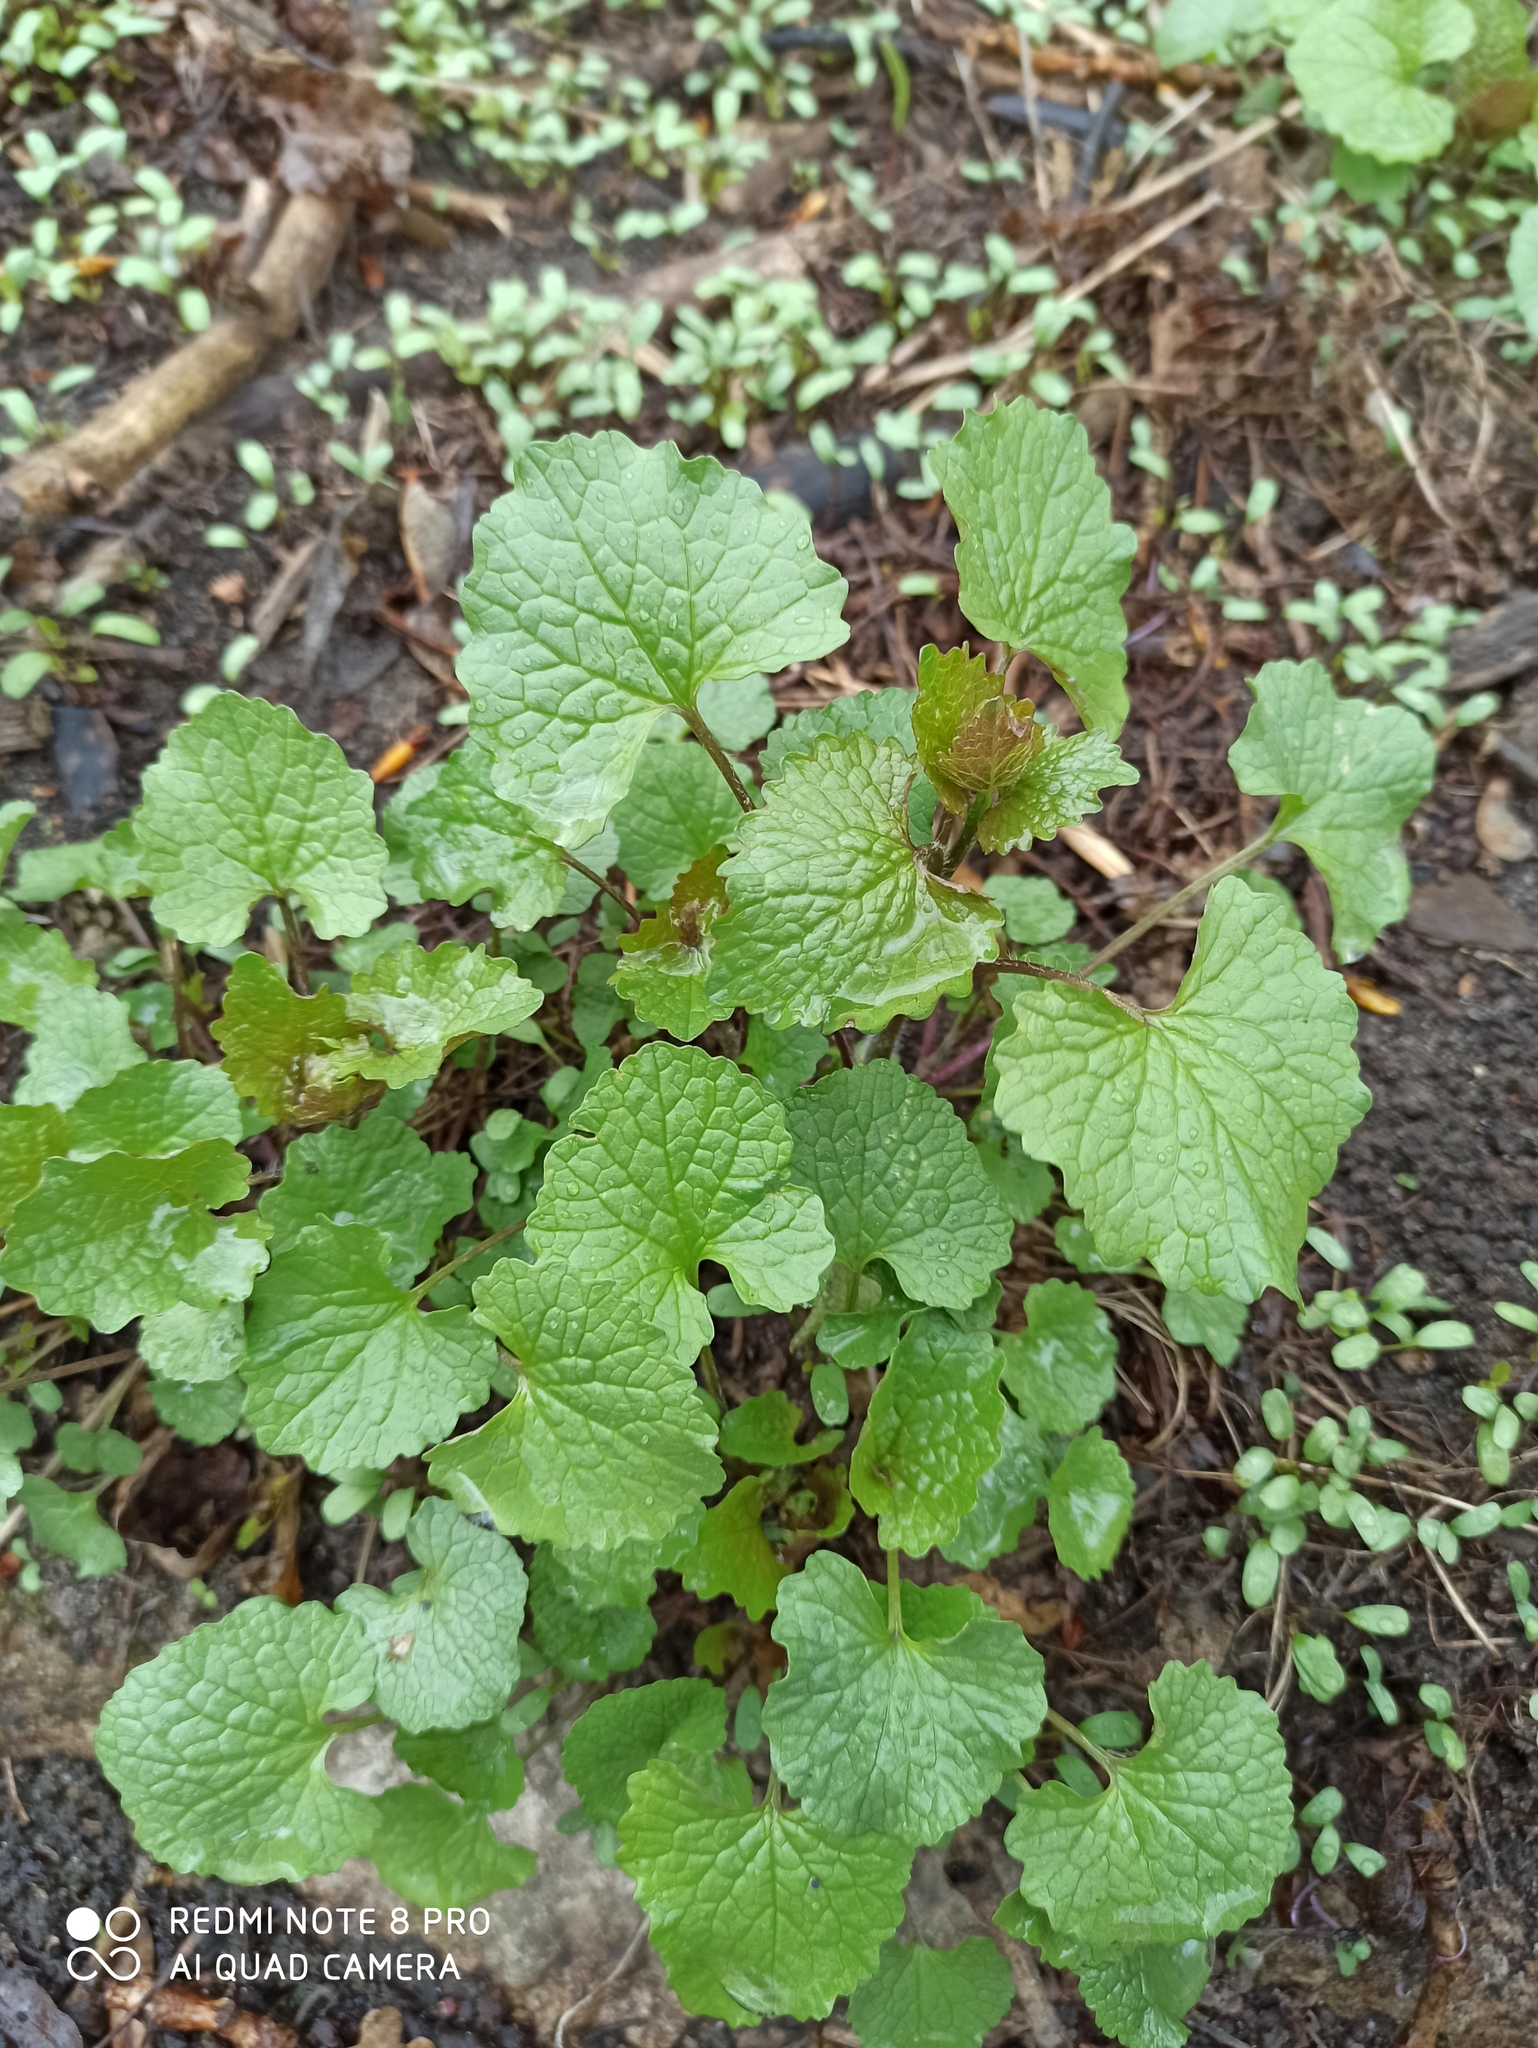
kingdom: Plantae
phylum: Tracheophyta
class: Magnoliopsida
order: Brassicales
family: Brassicaceae
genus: Alliaria
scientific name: Alliaria petiolata
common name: Garlic mustard
